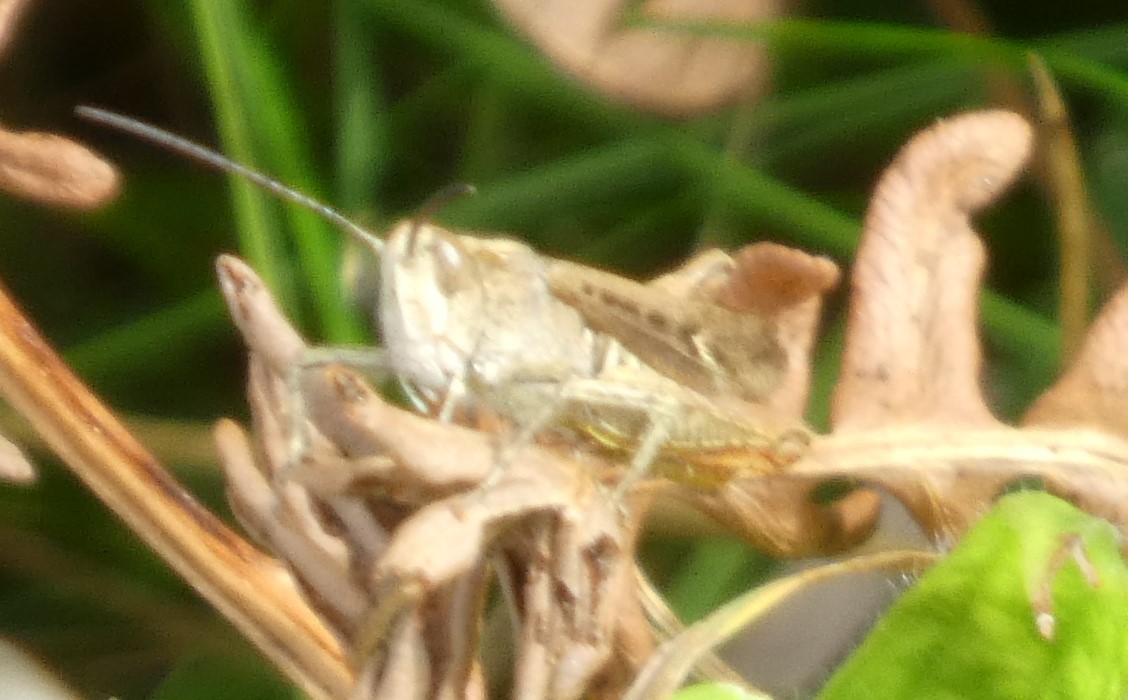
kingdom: Animalia
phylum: Arthropoda
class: Insecta
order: Orthoptera
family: Acrididae
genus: Chorthippus
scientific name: Chorthippus brunneus
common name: Field grasshopper
